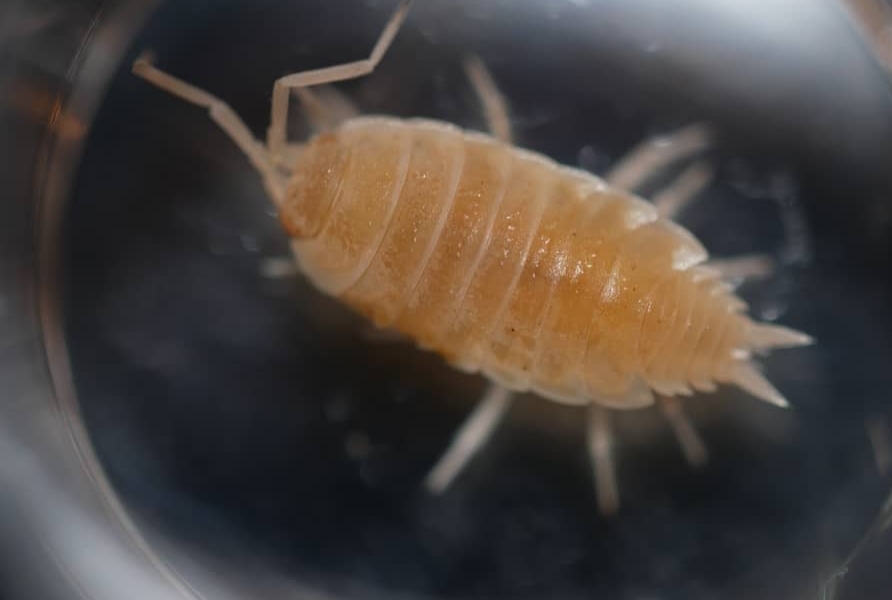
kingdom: Animalia
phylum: Arthropoda
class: Malacostraca
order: Isopoda
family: Porcellionidae
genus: Porcellionides
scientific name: Porcellionides floria
